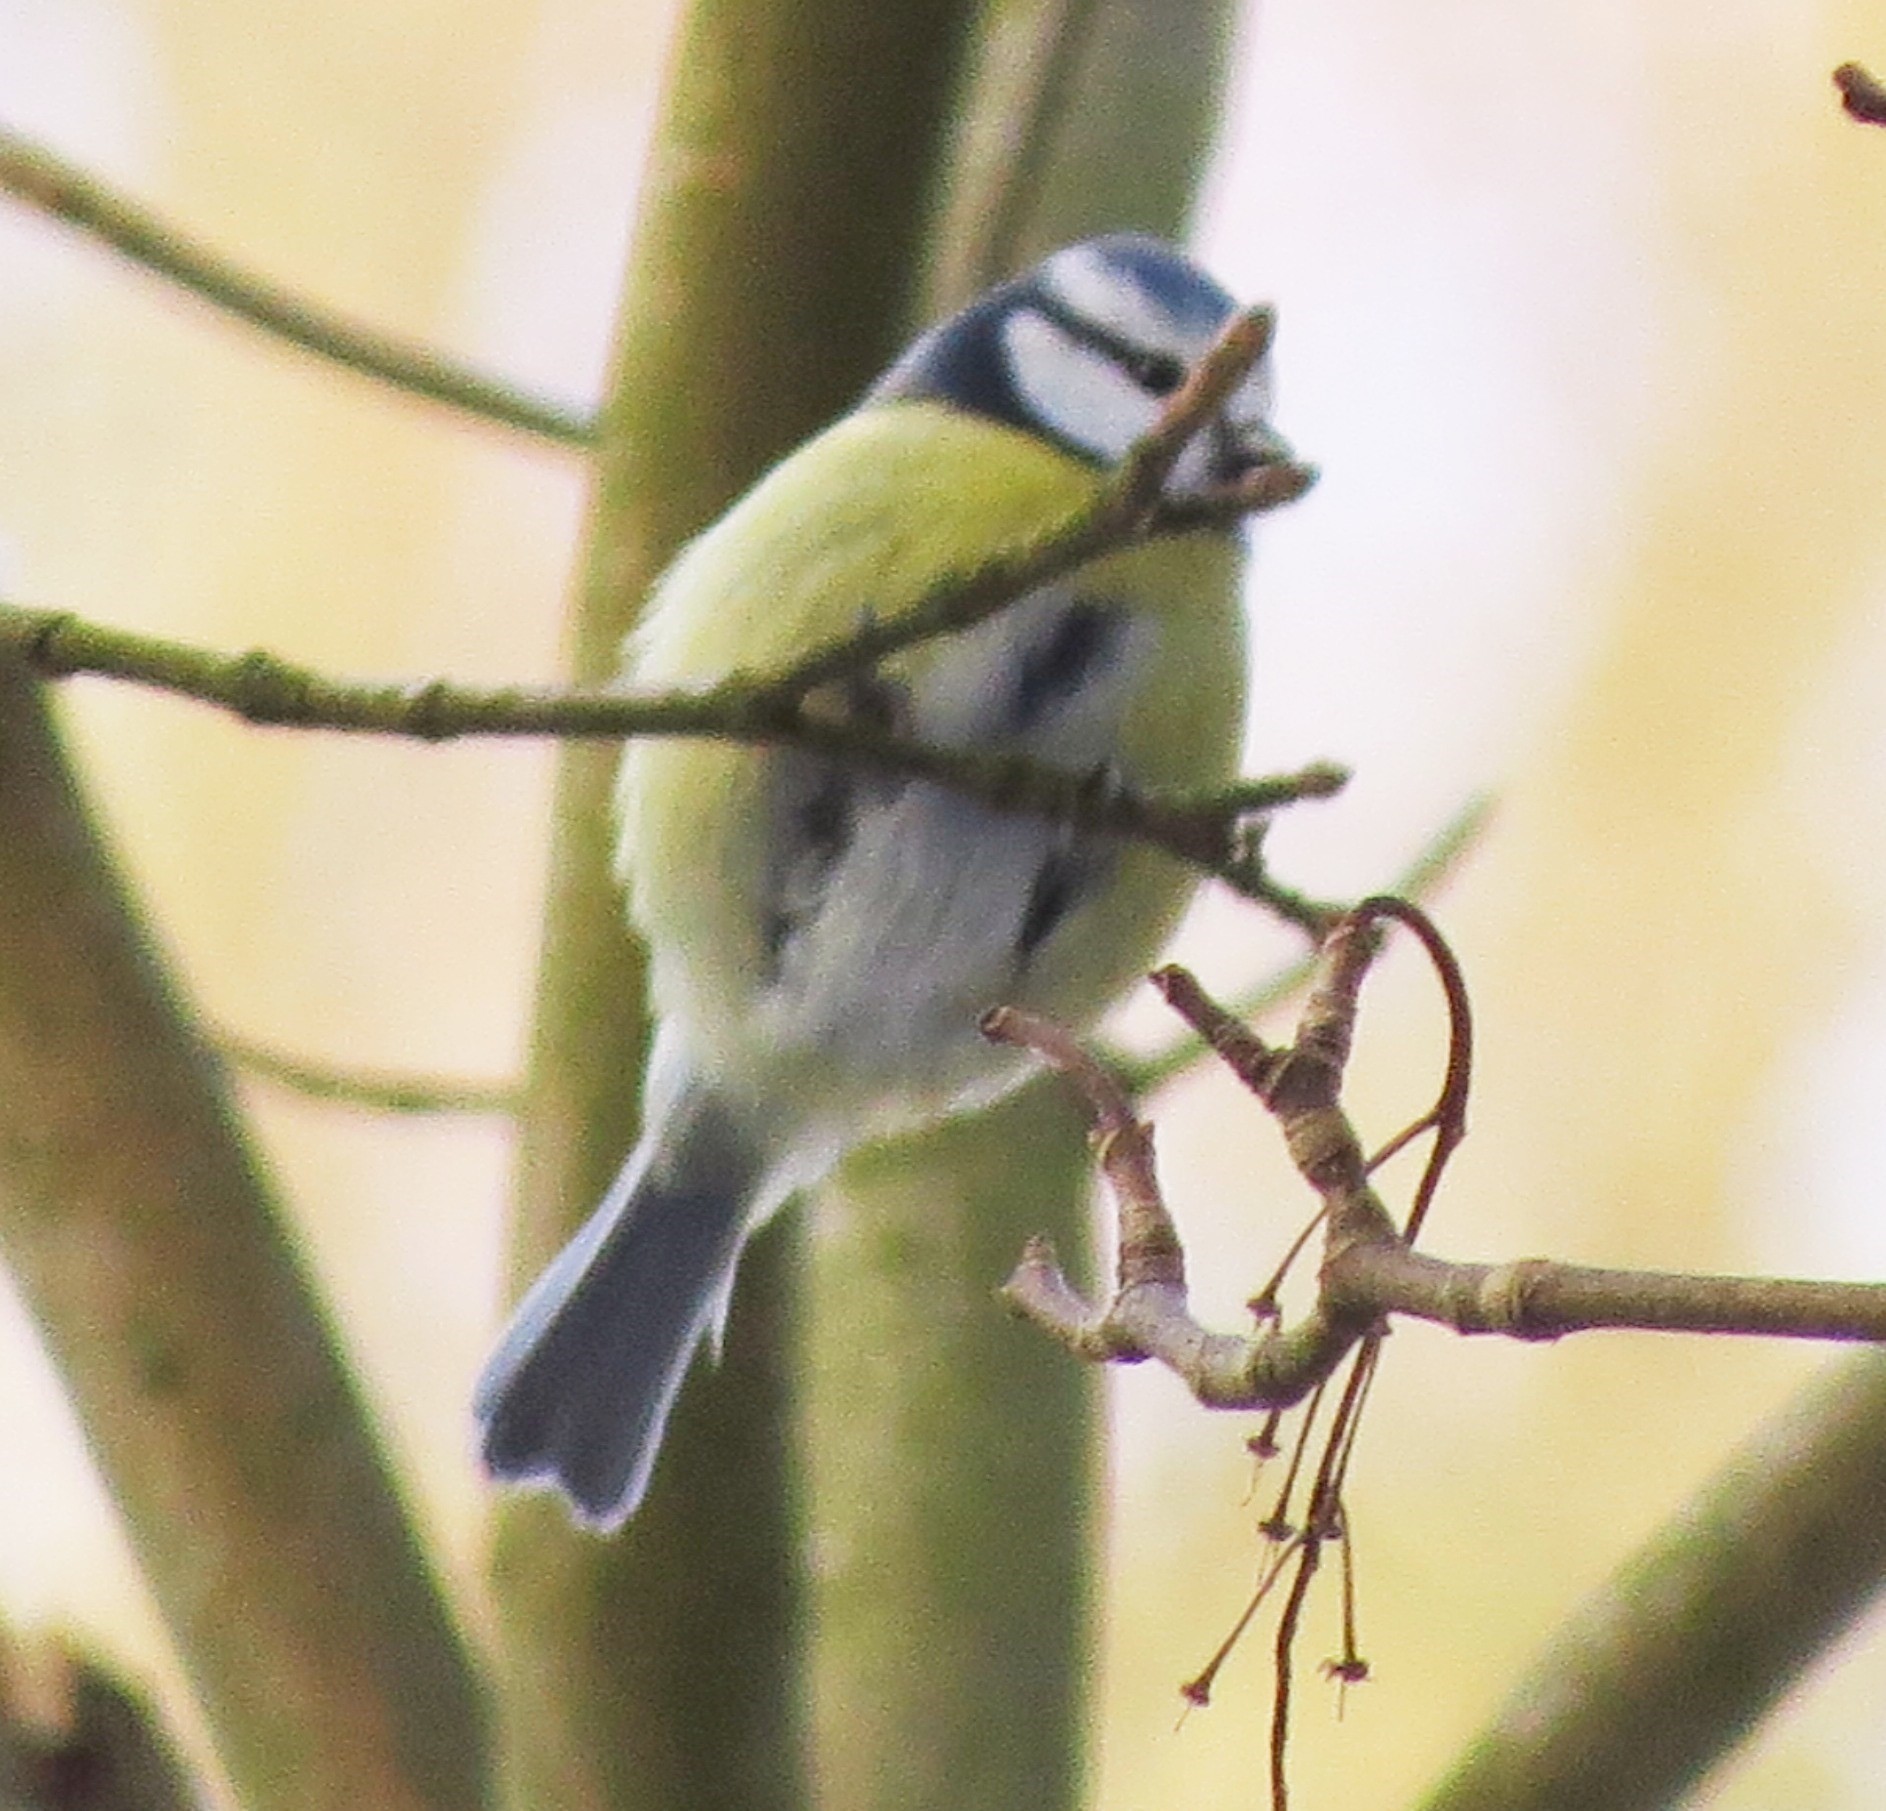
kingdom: Animalia
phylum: Chordata
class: Aves
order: Passeriformes
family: Paridae
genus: Cyanistes
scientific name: Cyanistes caeruleus
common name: Eurasian blue tit
